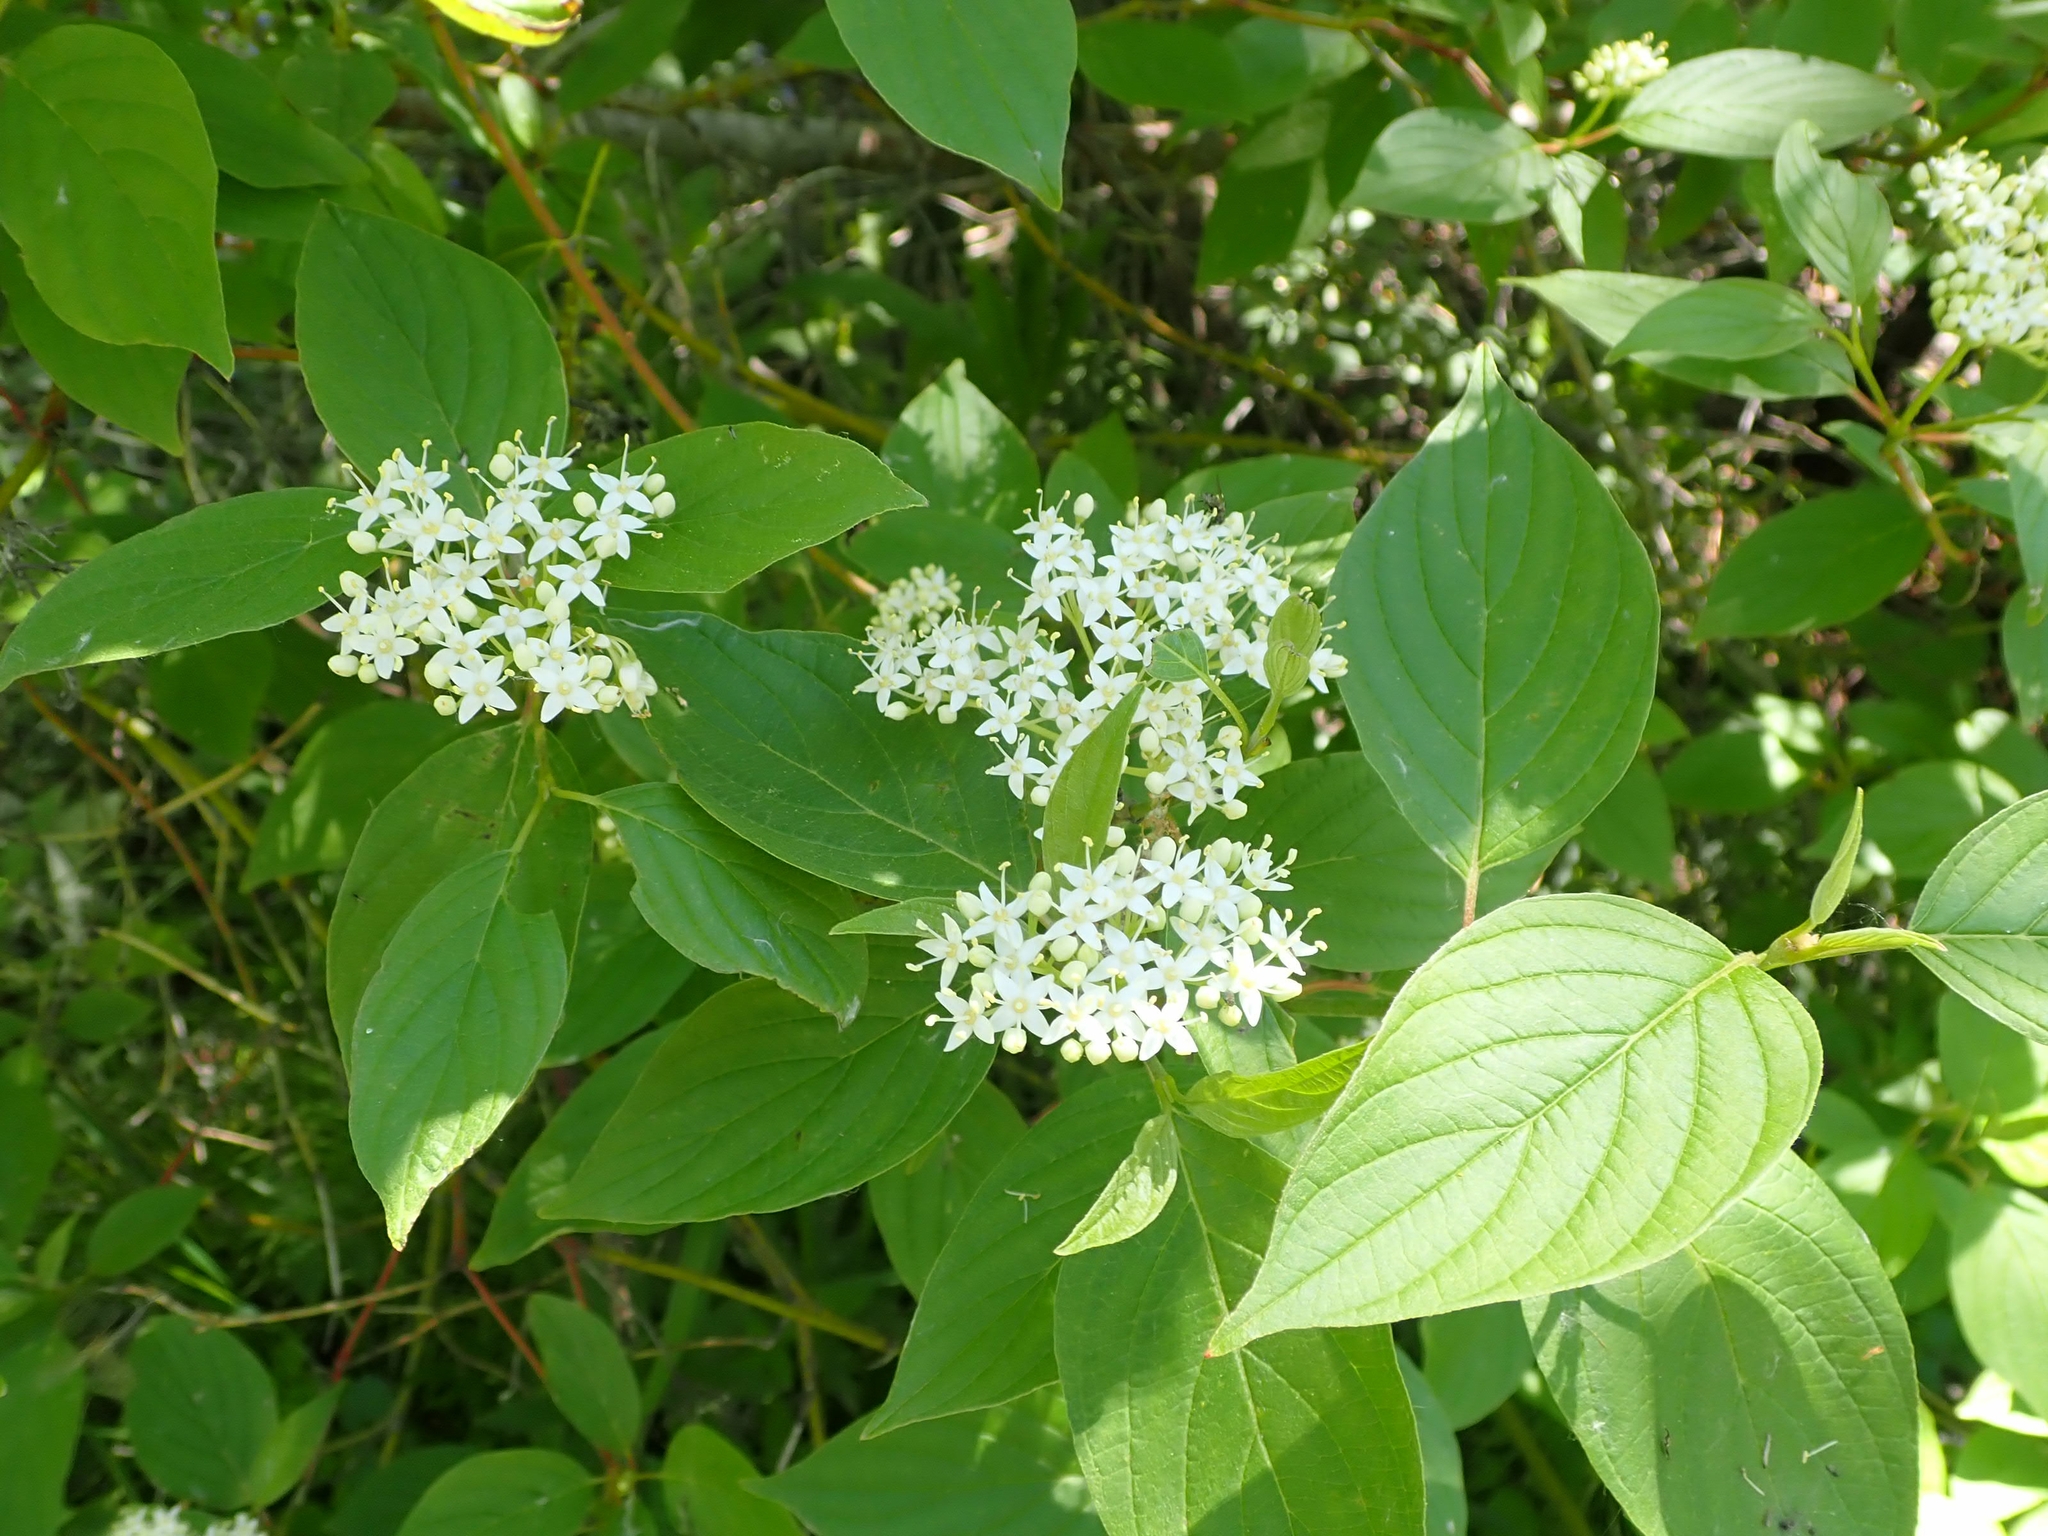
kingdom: Plantae
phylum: Tracheophyta
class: Magnoliopsida
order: Cornales
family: Cornaceae
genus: Cornus
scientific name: Cornus sericea
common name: Red-osier dogwood
